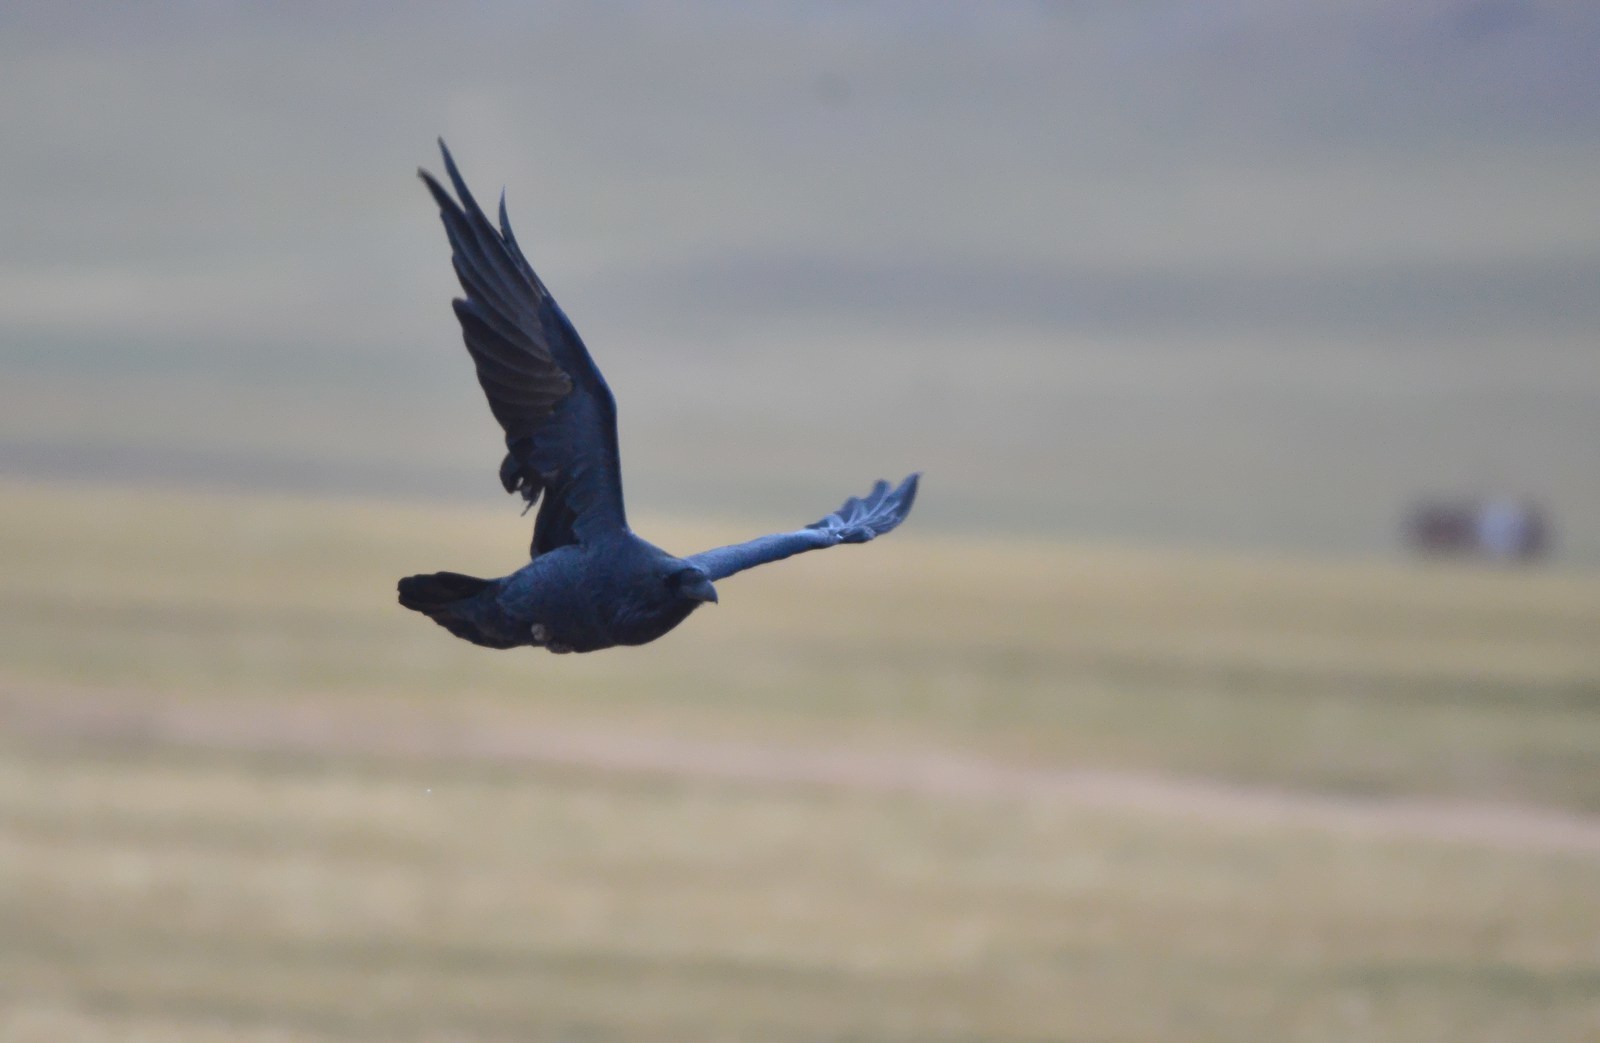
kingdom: Animalia
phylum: Chordata
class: Aves
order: Passeriformes
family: Corvidae
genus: Corvus
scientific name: Corvus corax
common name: Common raven
